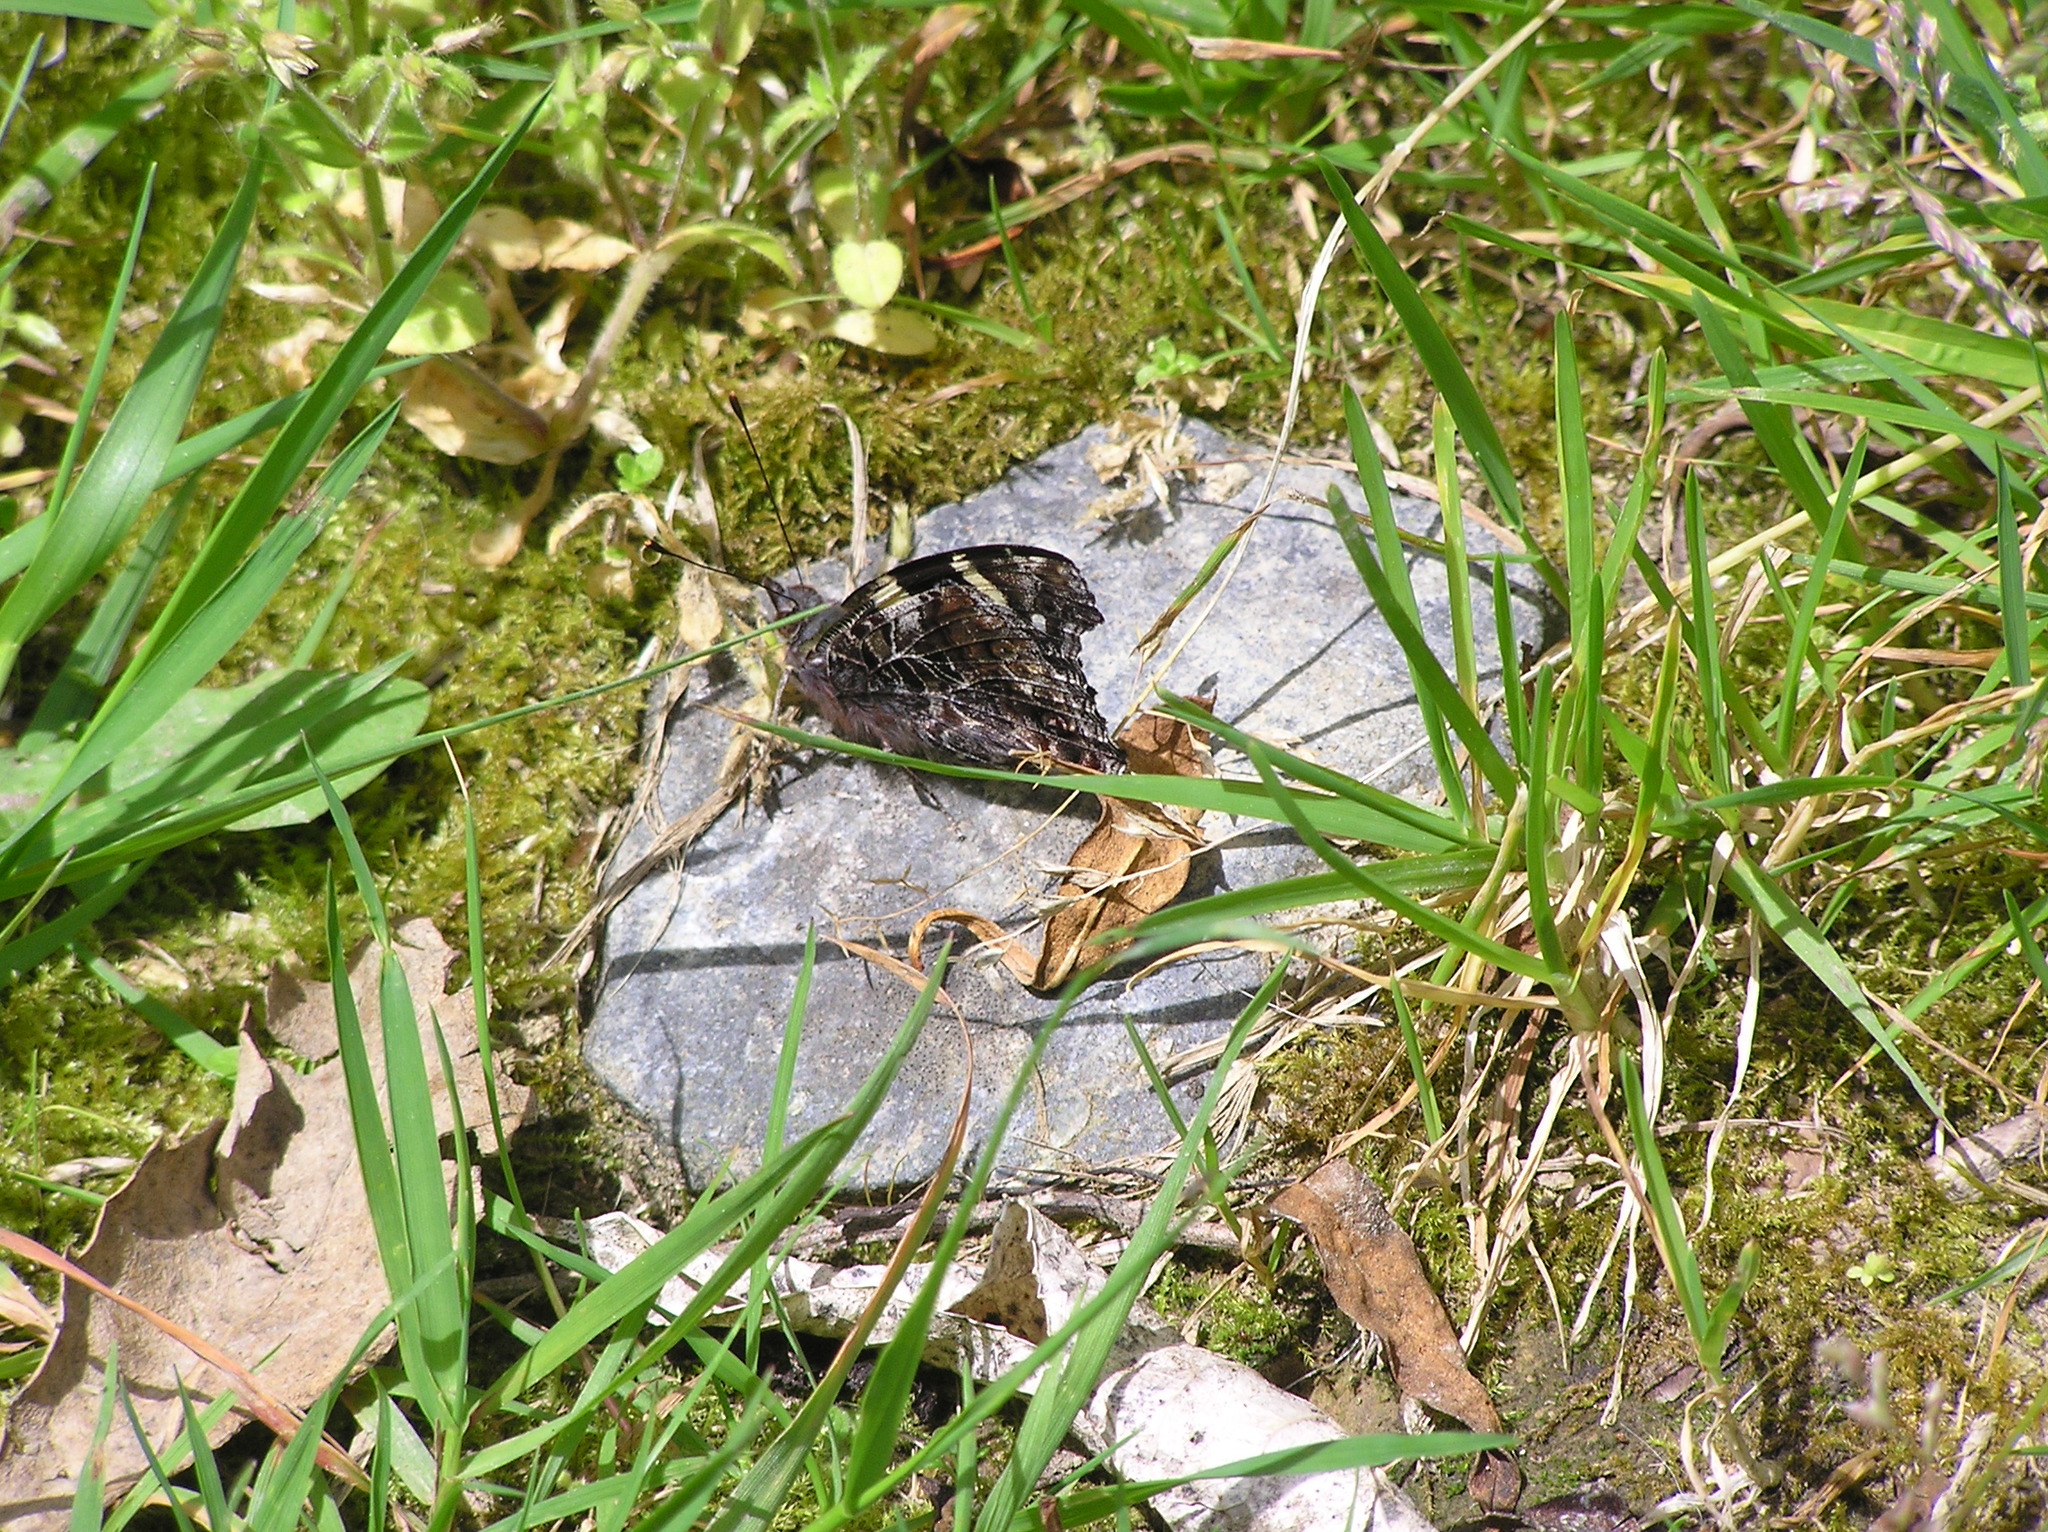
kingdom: Animalia
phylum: Arthropoda
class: Insecta
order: Lepidoptera
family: Nymphalidae
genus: Vanessa
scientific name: Vanessa itea
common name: Yellow admiral
